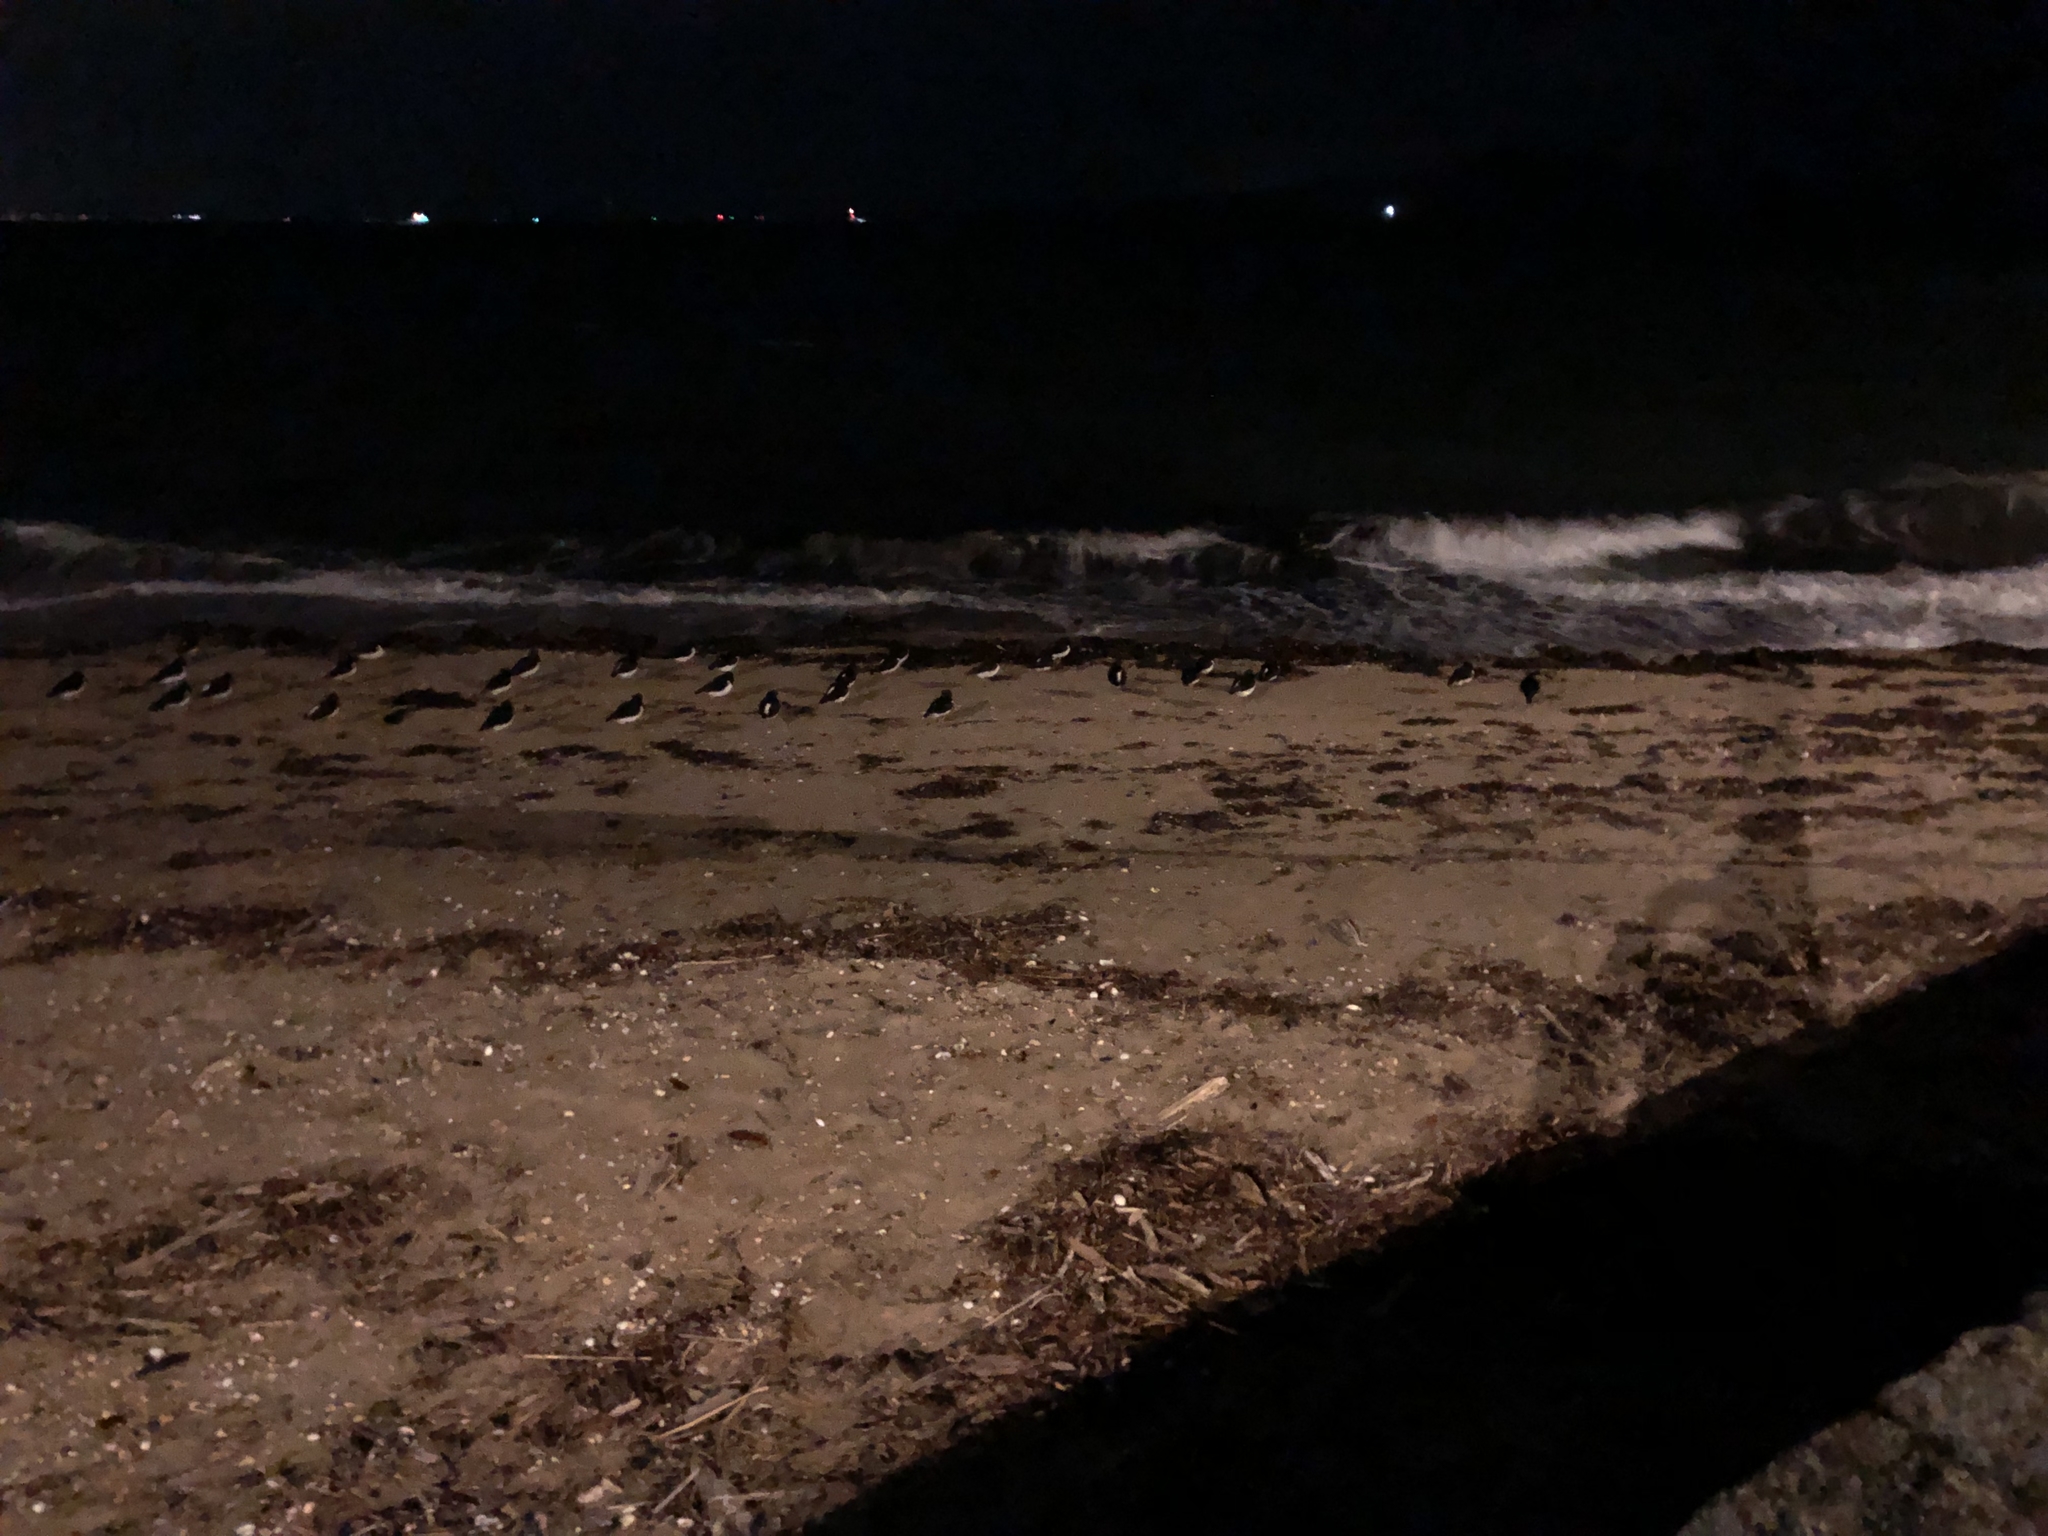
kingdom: Animalia
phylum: Chordata
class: Aves
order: Charadriiformes
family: Haematopodidae
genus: Haematopus
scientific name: Haematopus finschi
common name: South island oystercatcher
